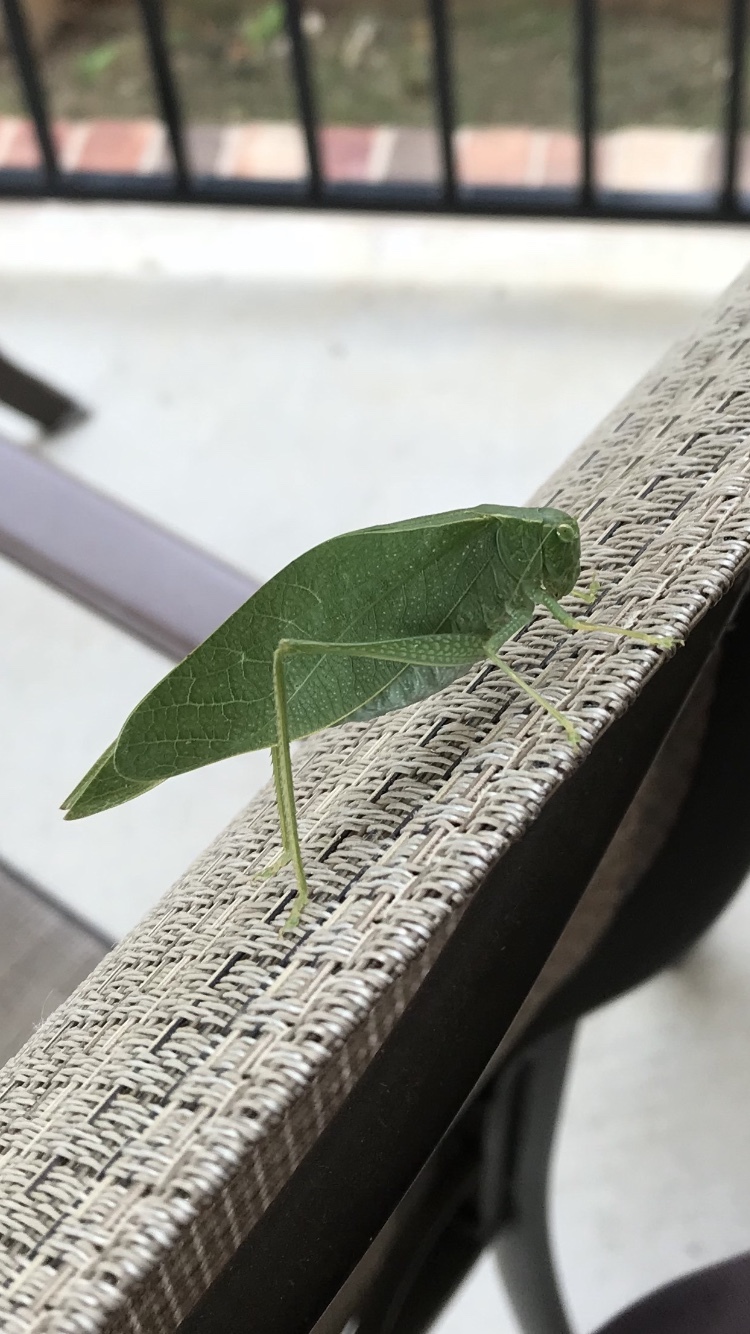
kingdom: Animalia
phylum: Arthropoda
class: Insecta
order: Orthoptera
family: Tettigoniidae
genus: Microcentrum
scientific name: Microcentrum rhombifolium
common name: Broad-winged katydid
